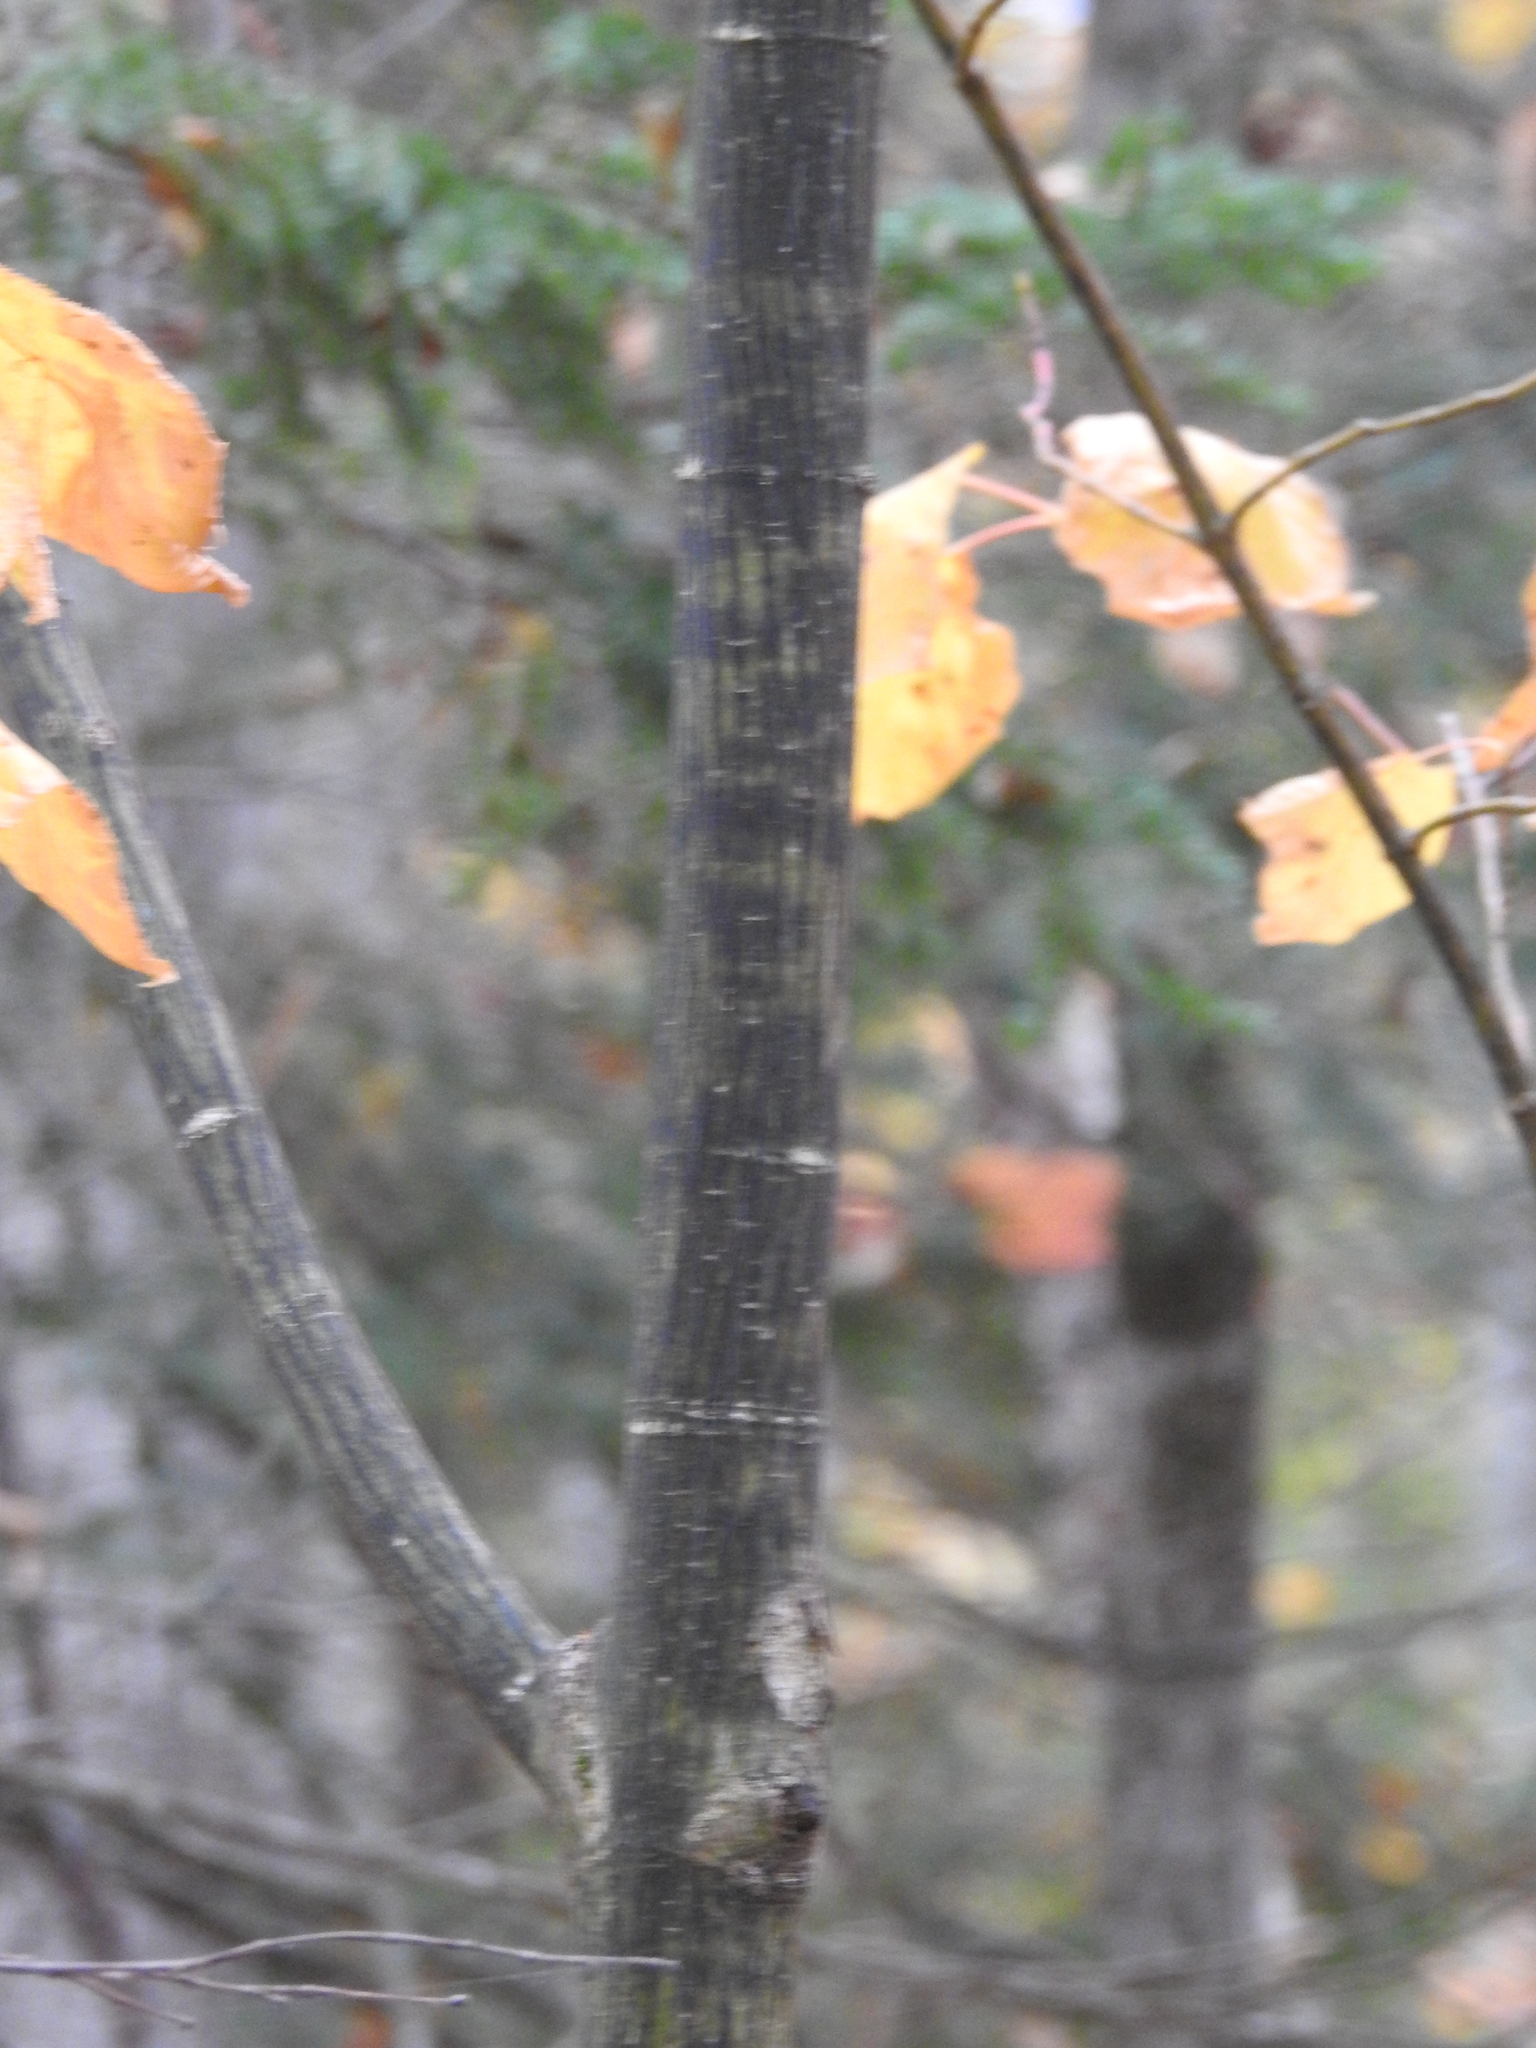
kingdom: Plantae
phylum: Tracheophyta
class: Magnoliopsida
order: Sapindales
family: Sapindaceae
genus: Acer
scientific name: Acer pensylvanicum
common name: Moosewood
